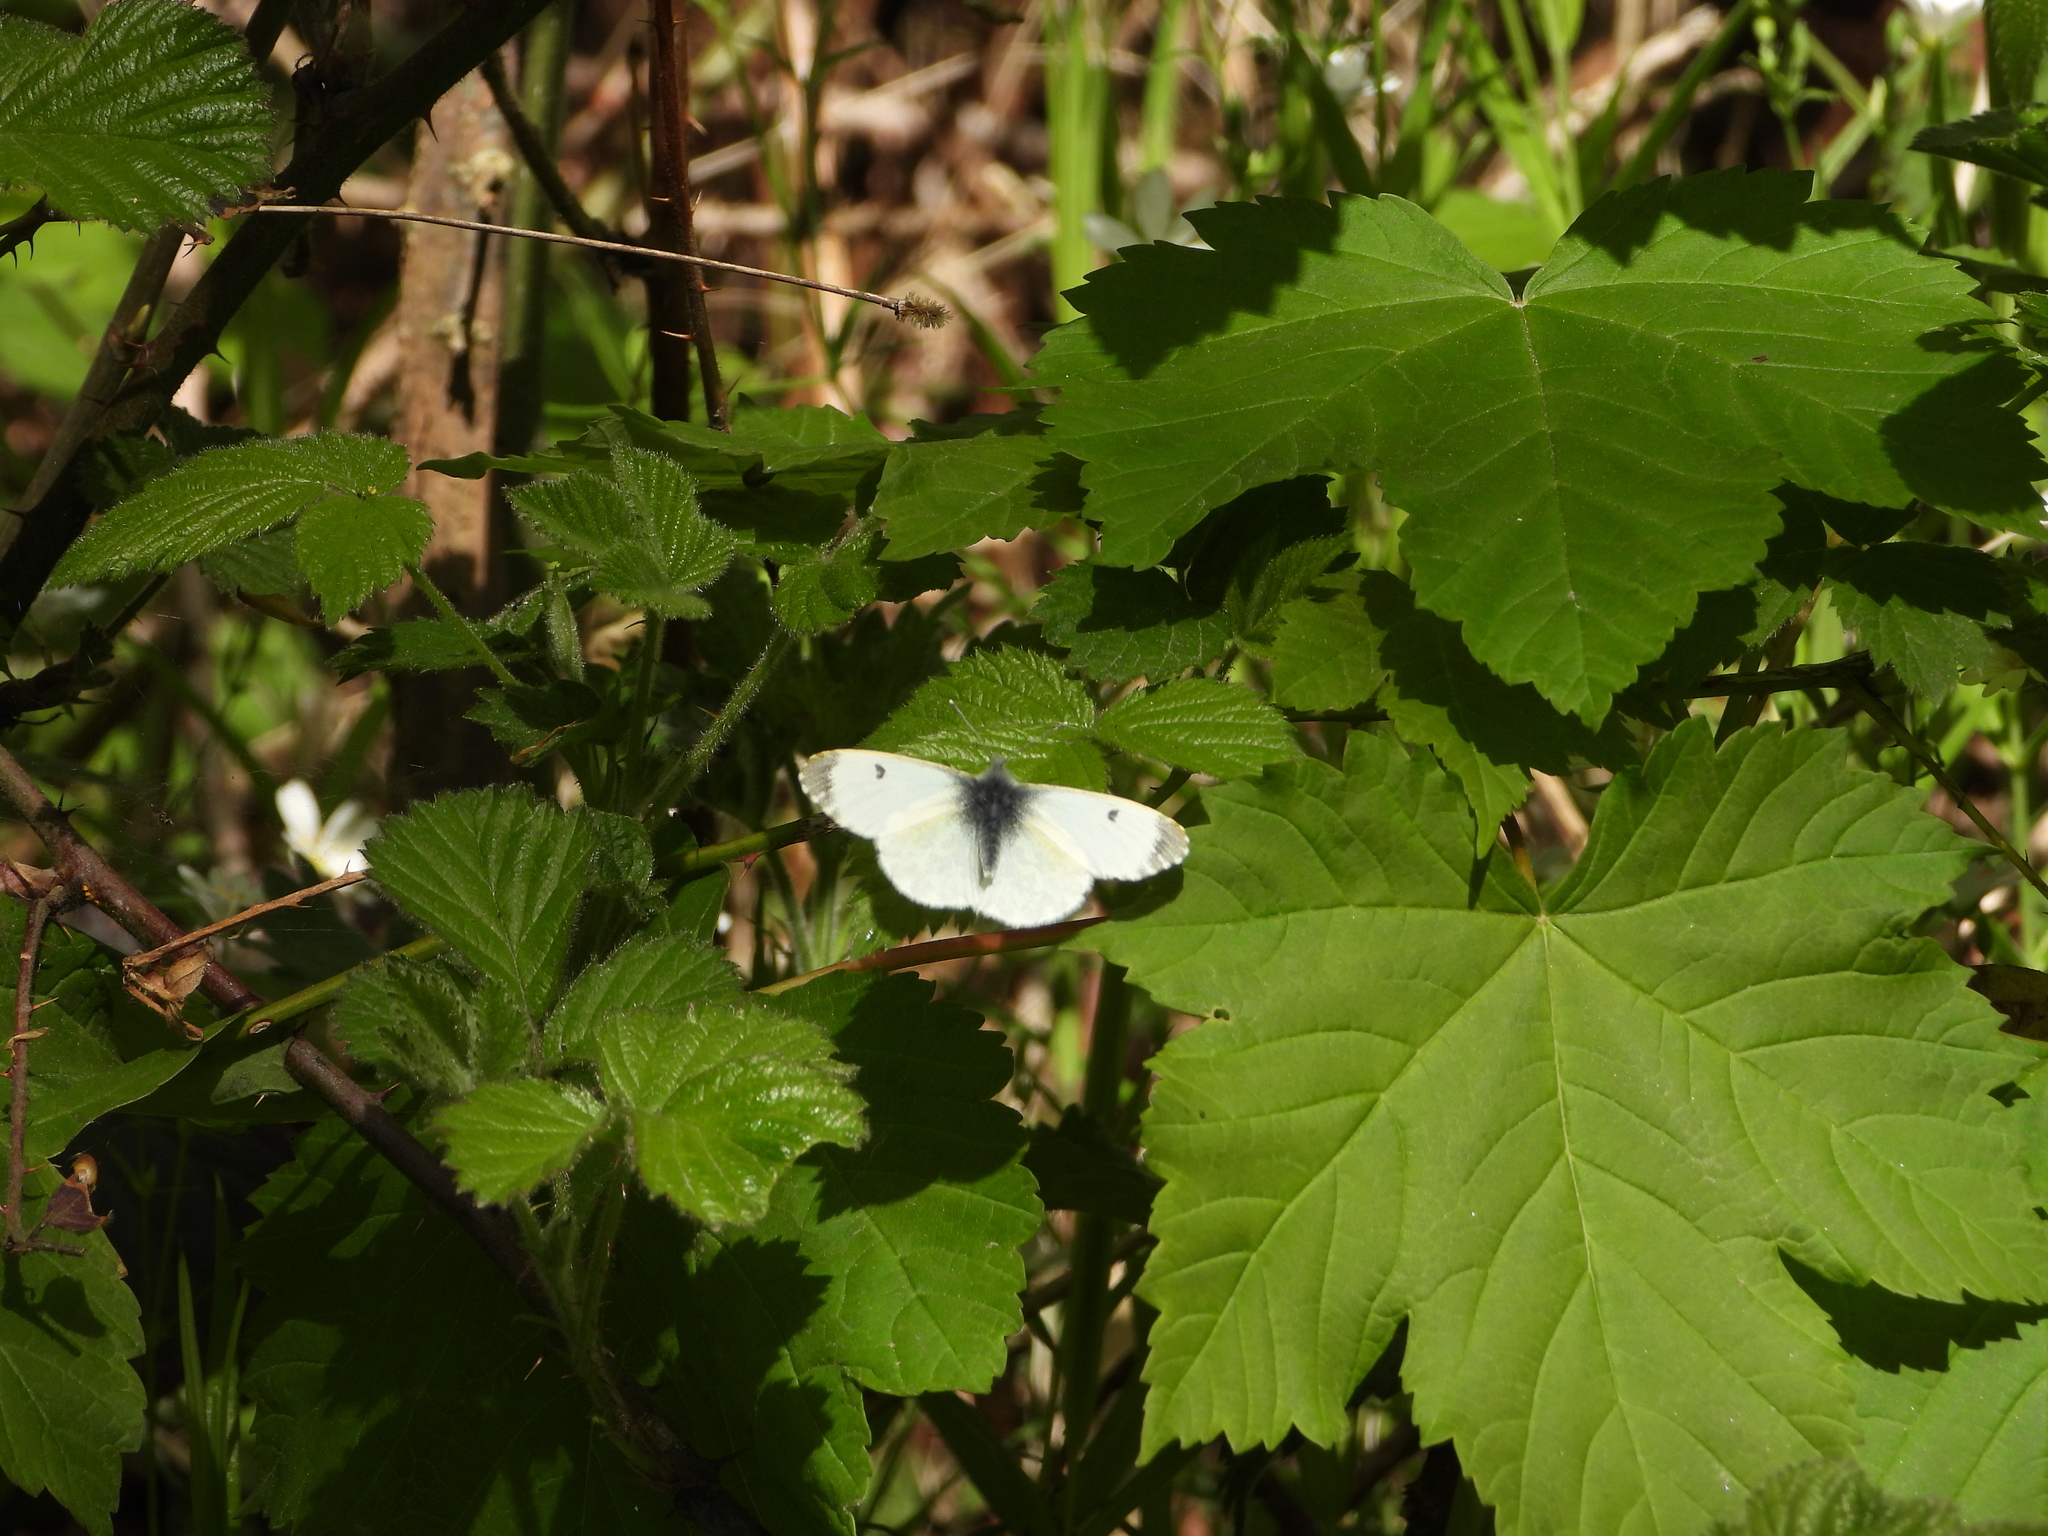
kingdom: Animalia
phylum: Arthropoda
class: Insecta
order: Lepidoptera
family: Pieridae
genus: Anthocharis
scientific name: Anthocharis cardamines
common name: Orange-tip
